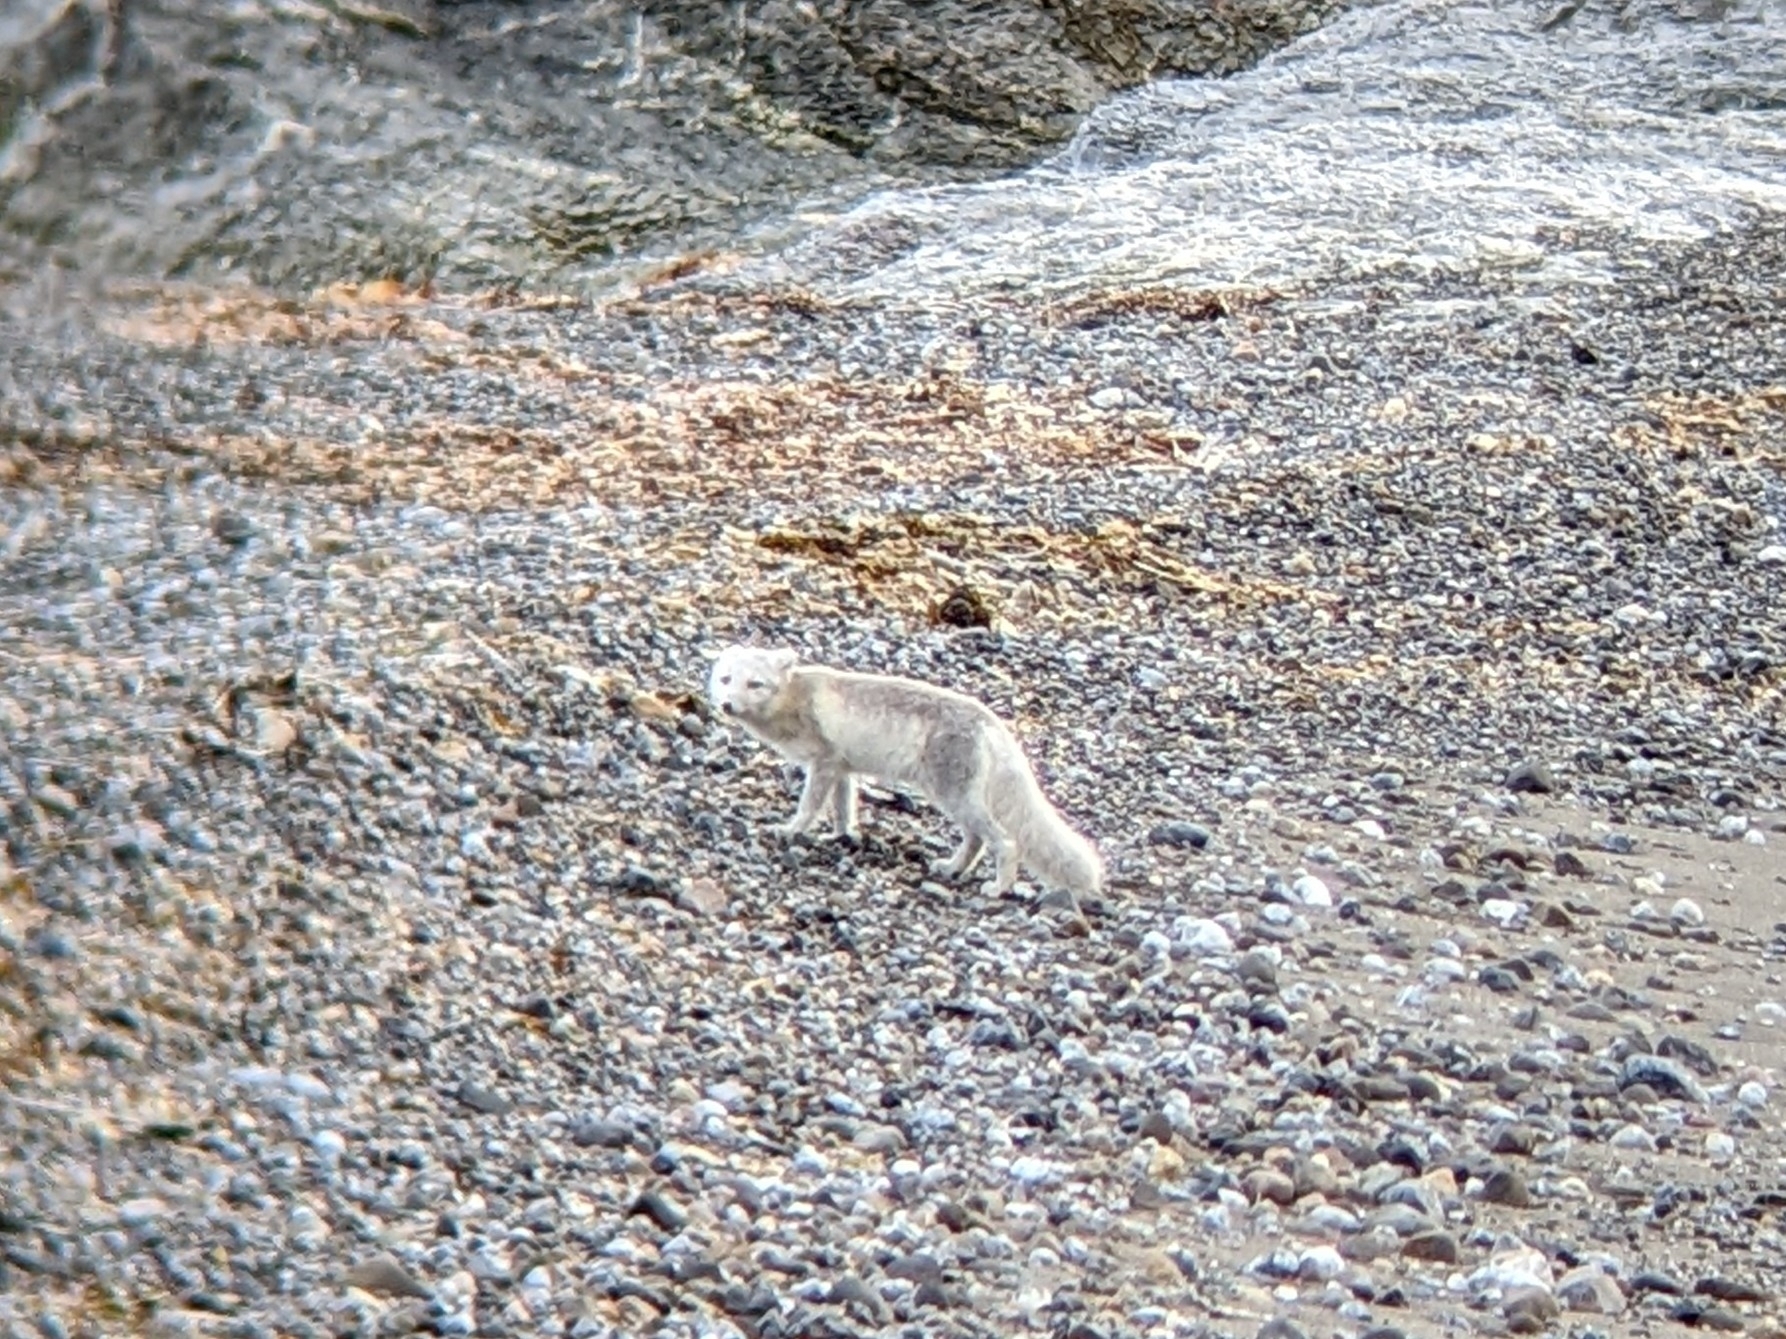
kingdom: Animalia
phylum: Chordata
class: Mammalia
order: Carnivora
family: Canidae
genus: Vulpes
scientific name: Vulpes lagopus
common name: Arctic fox
